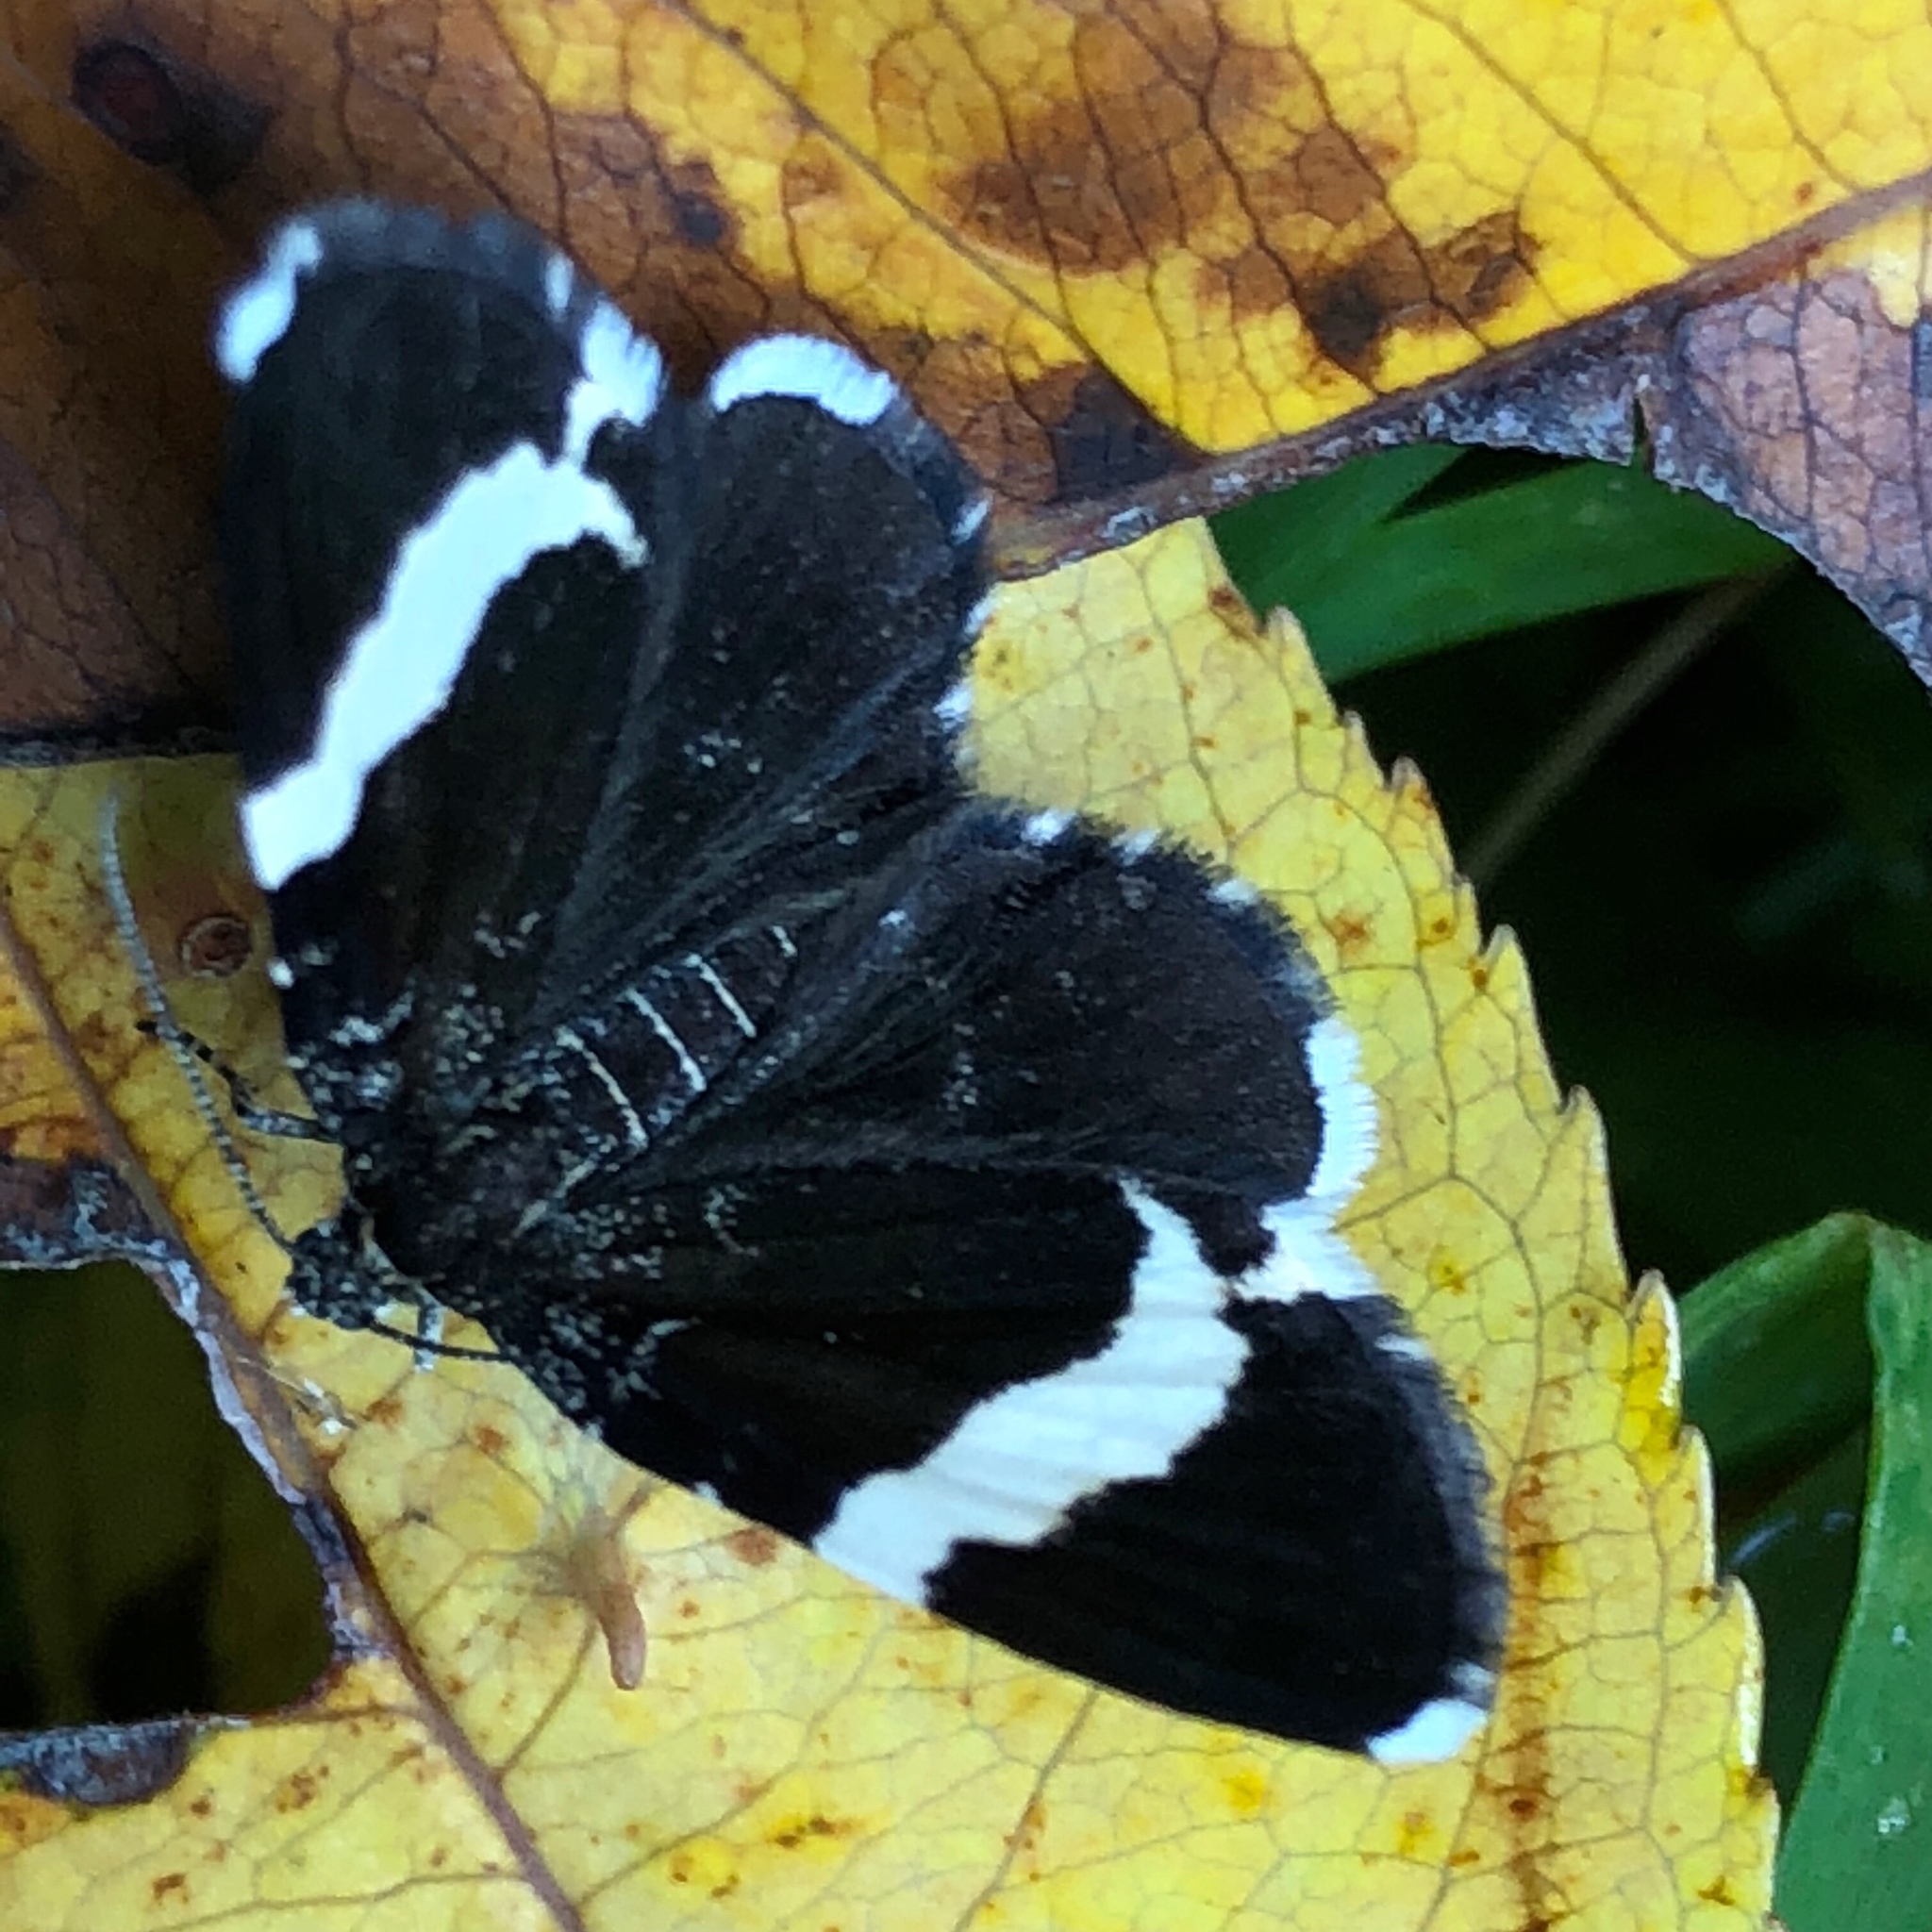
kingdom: Animalia
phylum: Arthropoda
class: Insecta
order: Lepidoptera
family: Geometridae
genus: Trichodezia
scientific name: Trichodezia albovittata
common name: White striped black
